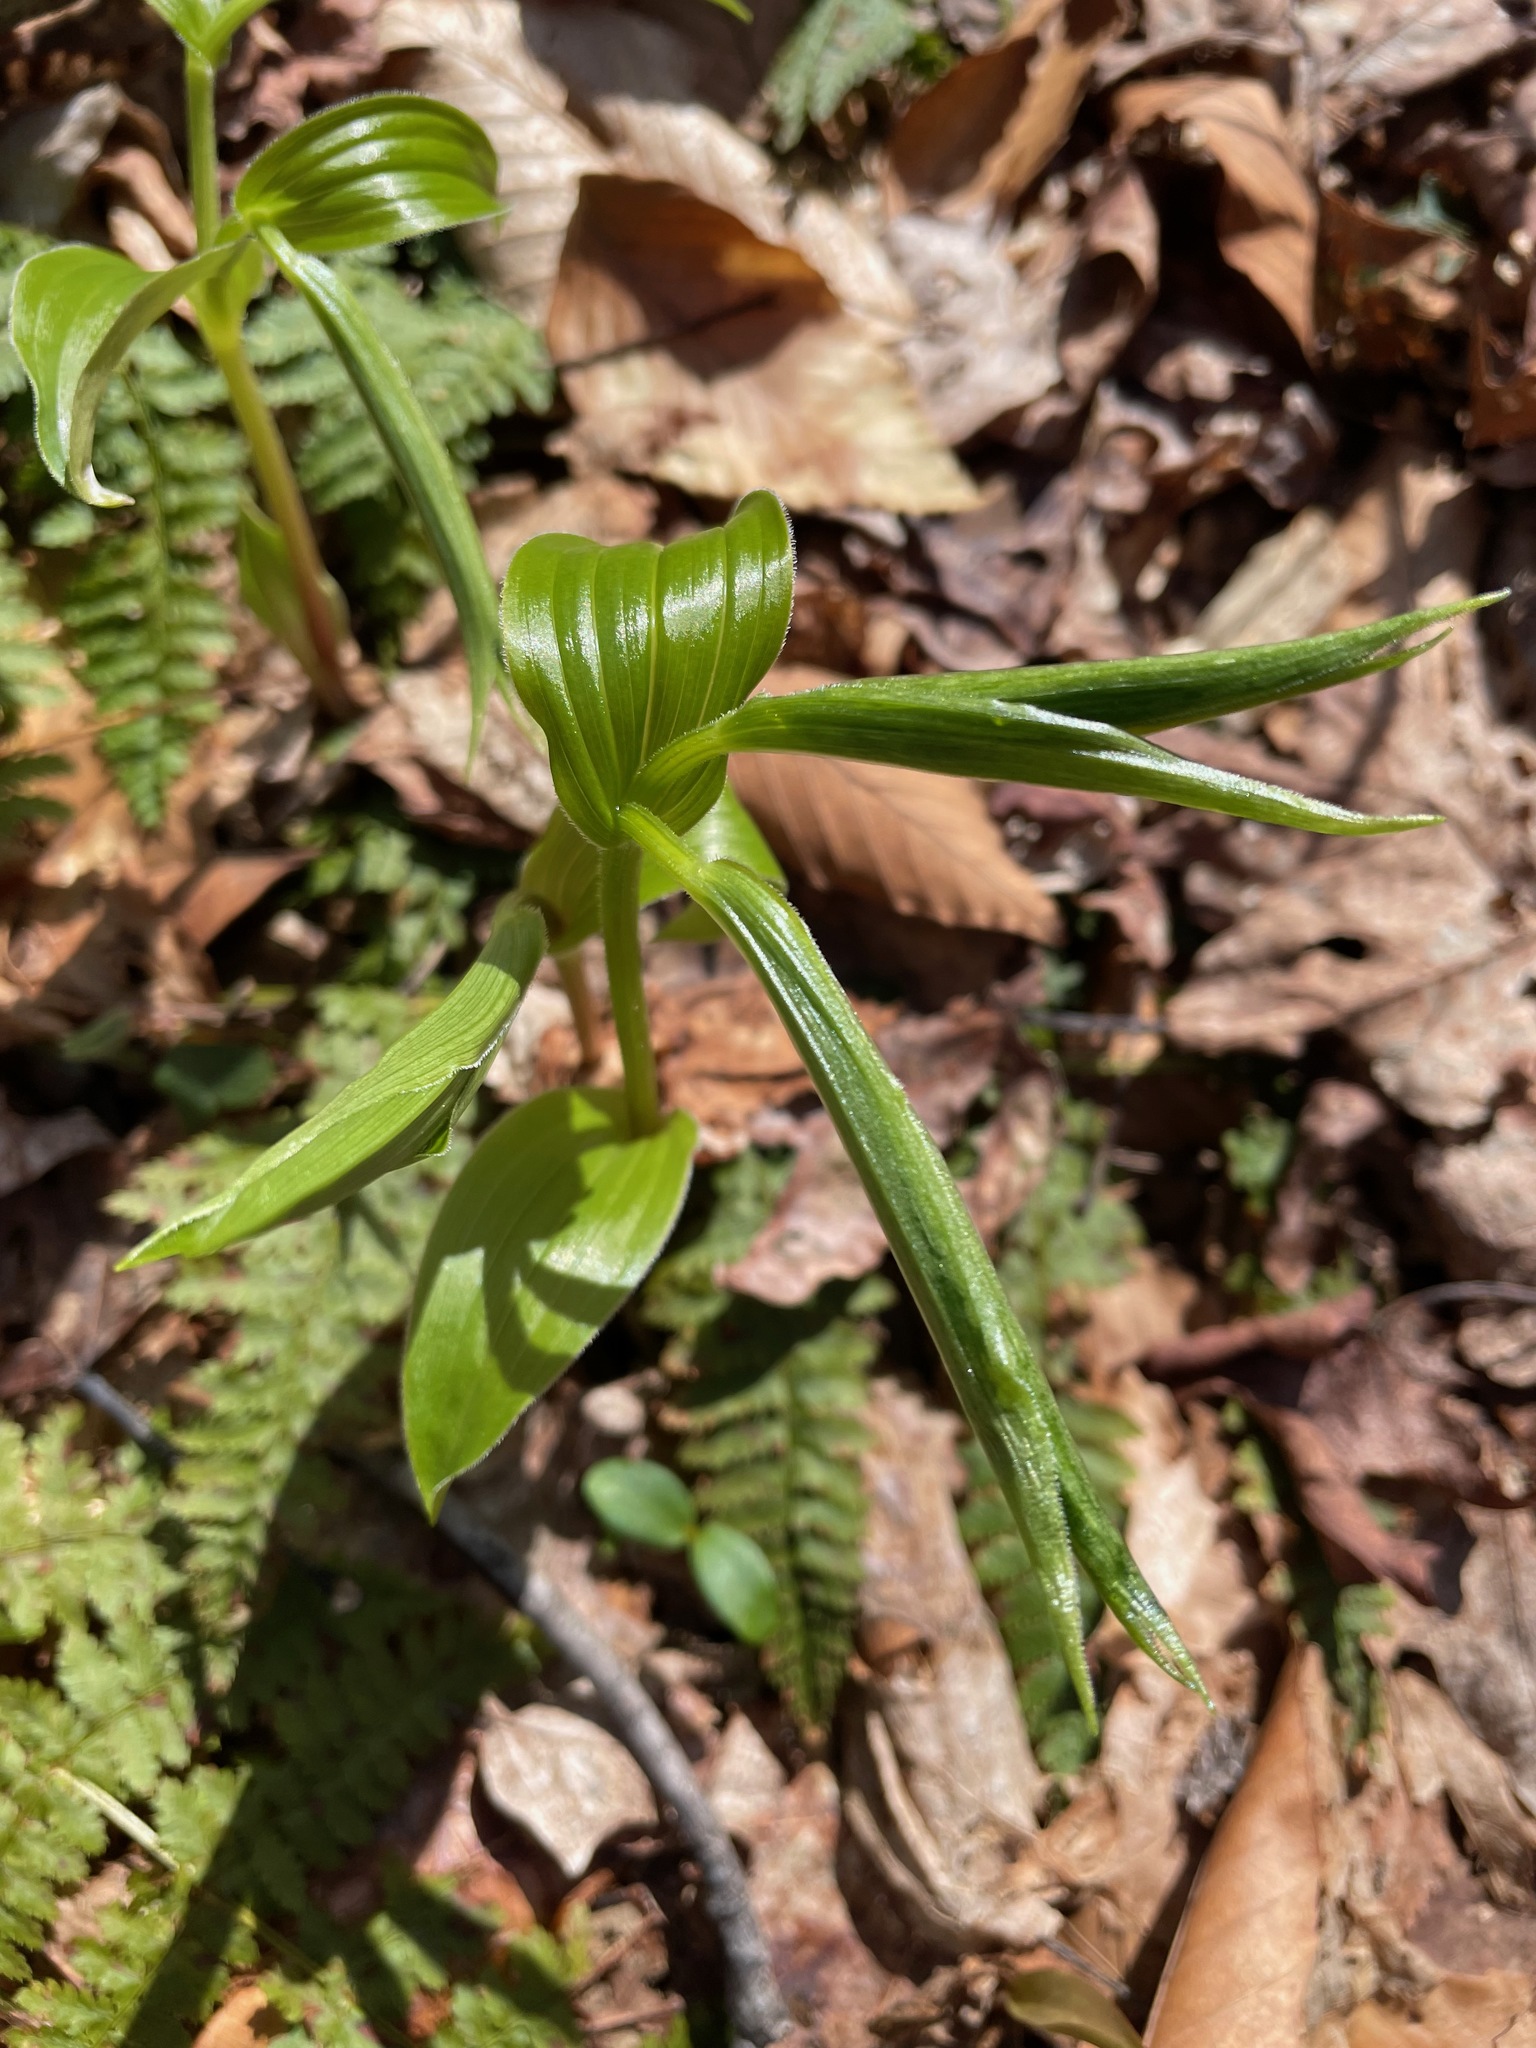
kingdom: Plantae
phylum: Tracheophyta
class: Liliopsida
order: Liliales
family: Liliaceae
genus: Streptopus
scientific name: Streptopus lanceolatus
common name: Rose mandarin
